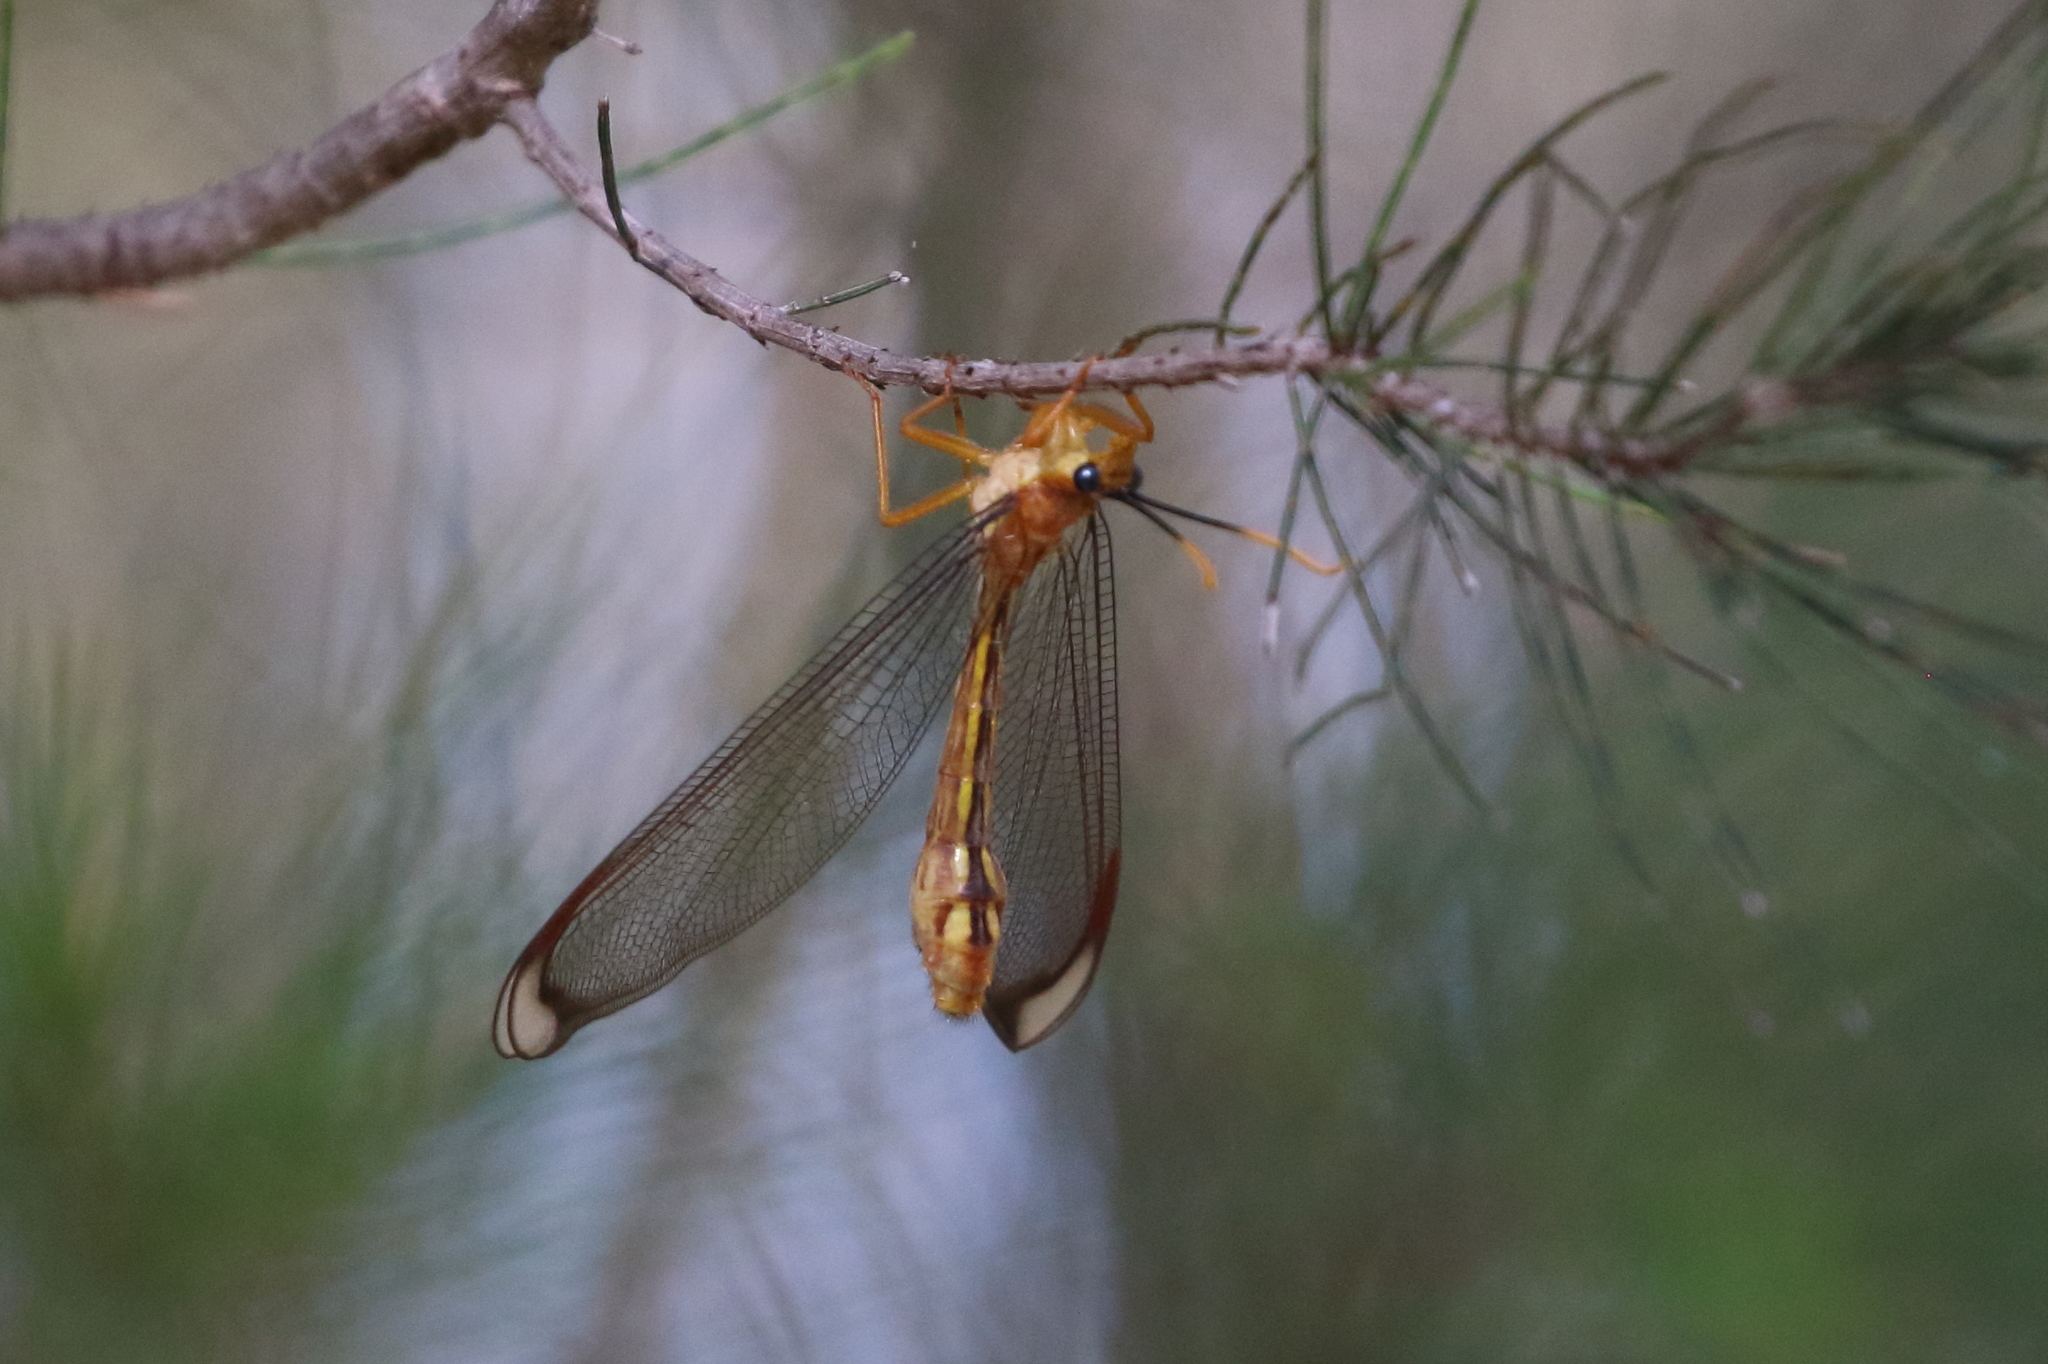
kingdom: Animalia
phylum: Arthropoda
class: Insecta
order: Neuroptera
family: Nymphidae
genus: Nymphes
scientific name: Nymphes myrmeleonoides
